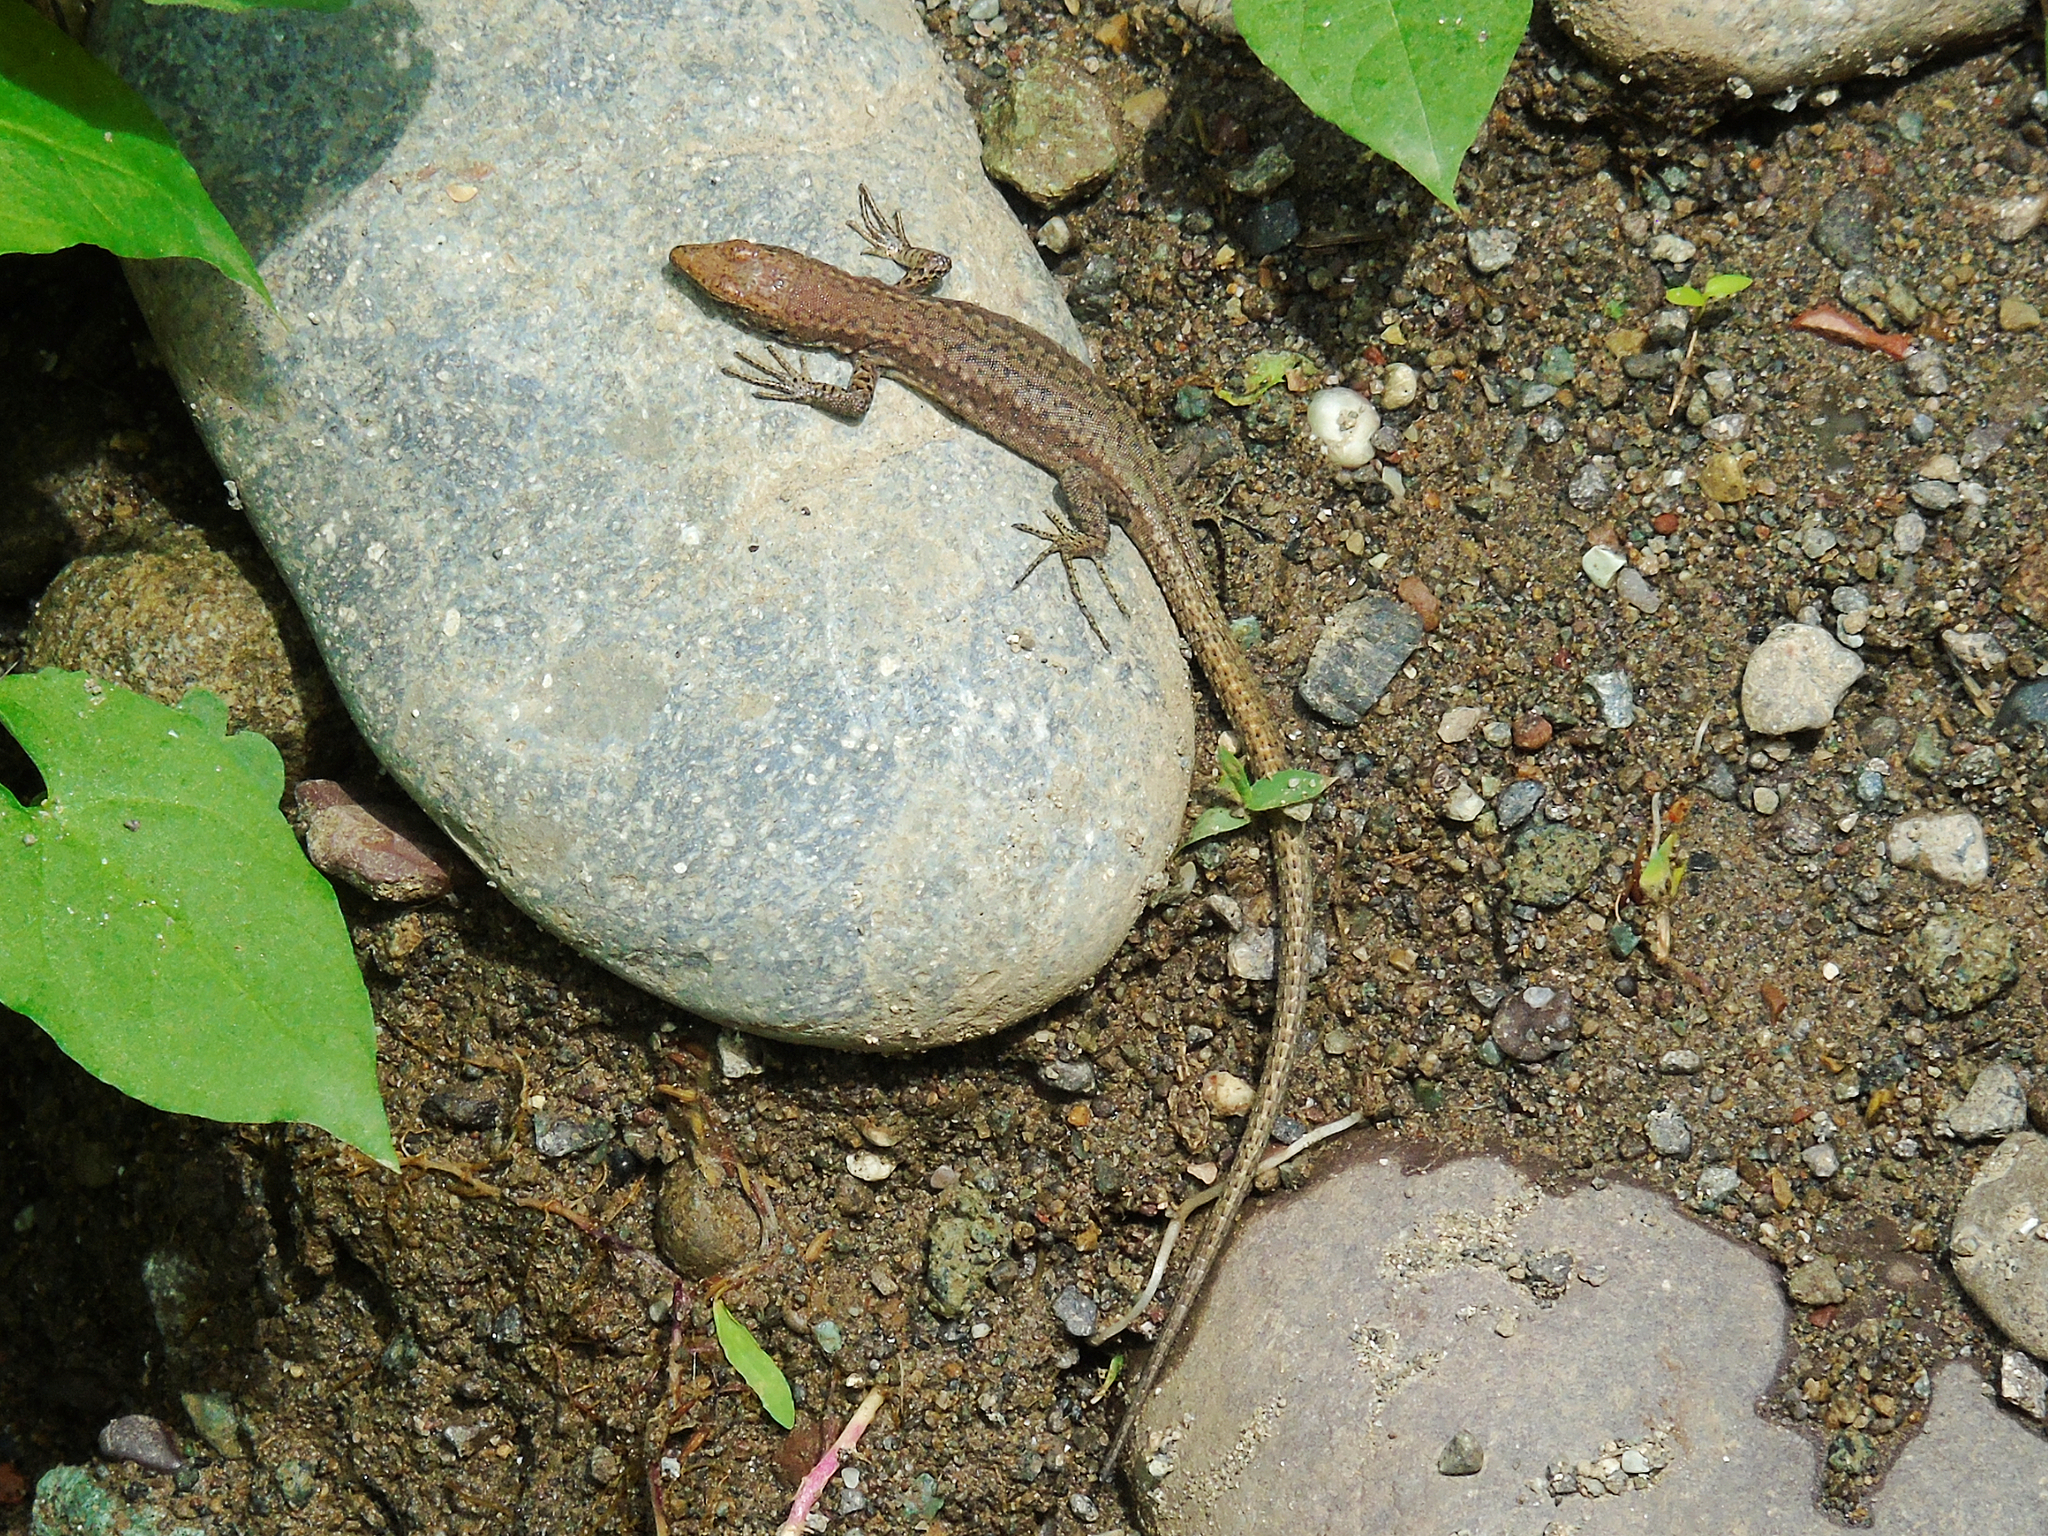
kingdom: Animalia
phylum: Chordata
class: Squamata
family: Lacertidae
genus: Darevskia
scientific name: Darevskia rudis
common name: Spiny-tailed lizard
